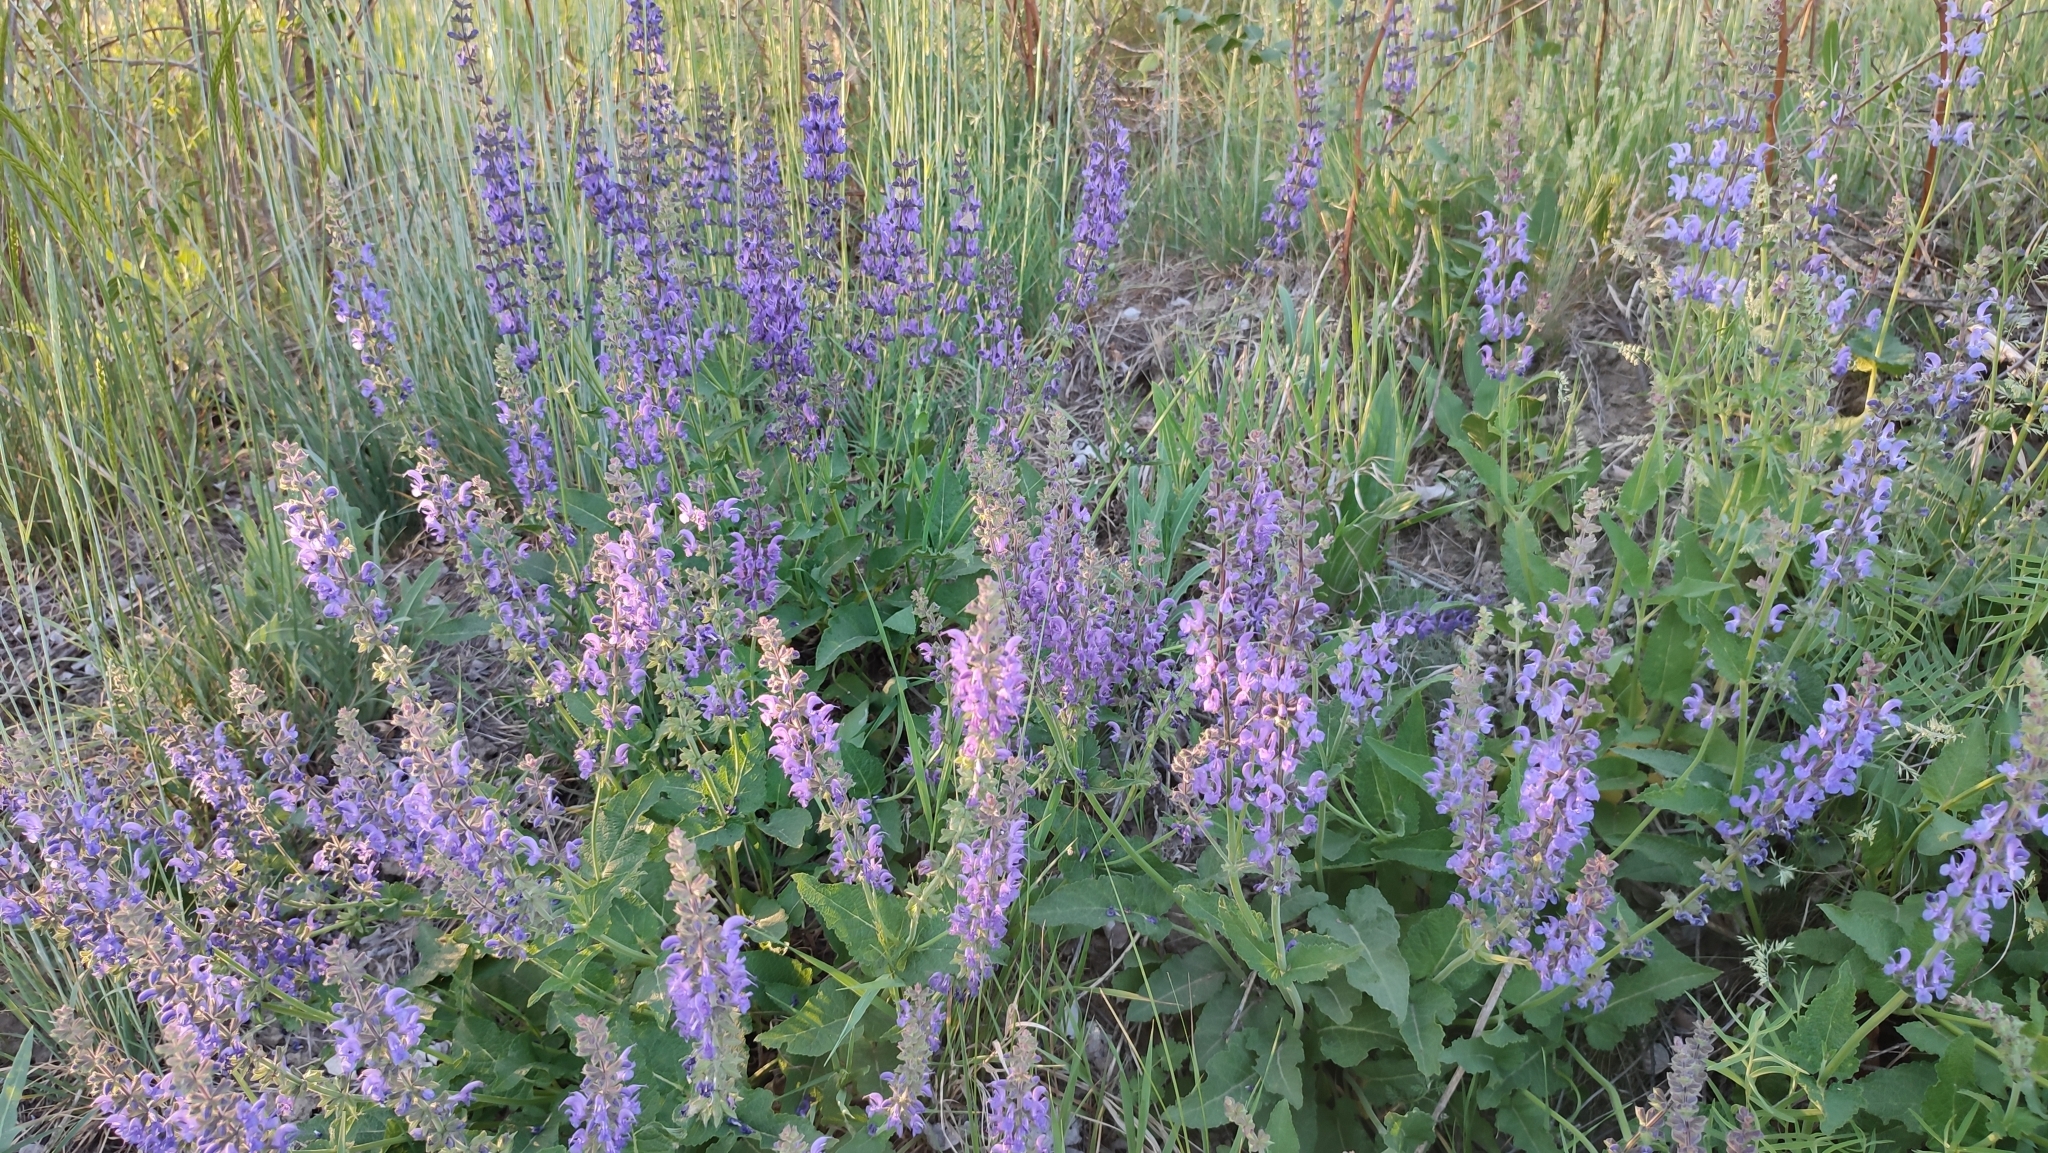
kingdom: Plantae
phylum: Tracheophyta
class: Magnoliopsida
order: Lamiales
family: Lamiaceae
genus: Salvia
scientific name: Salvia dumetorum
